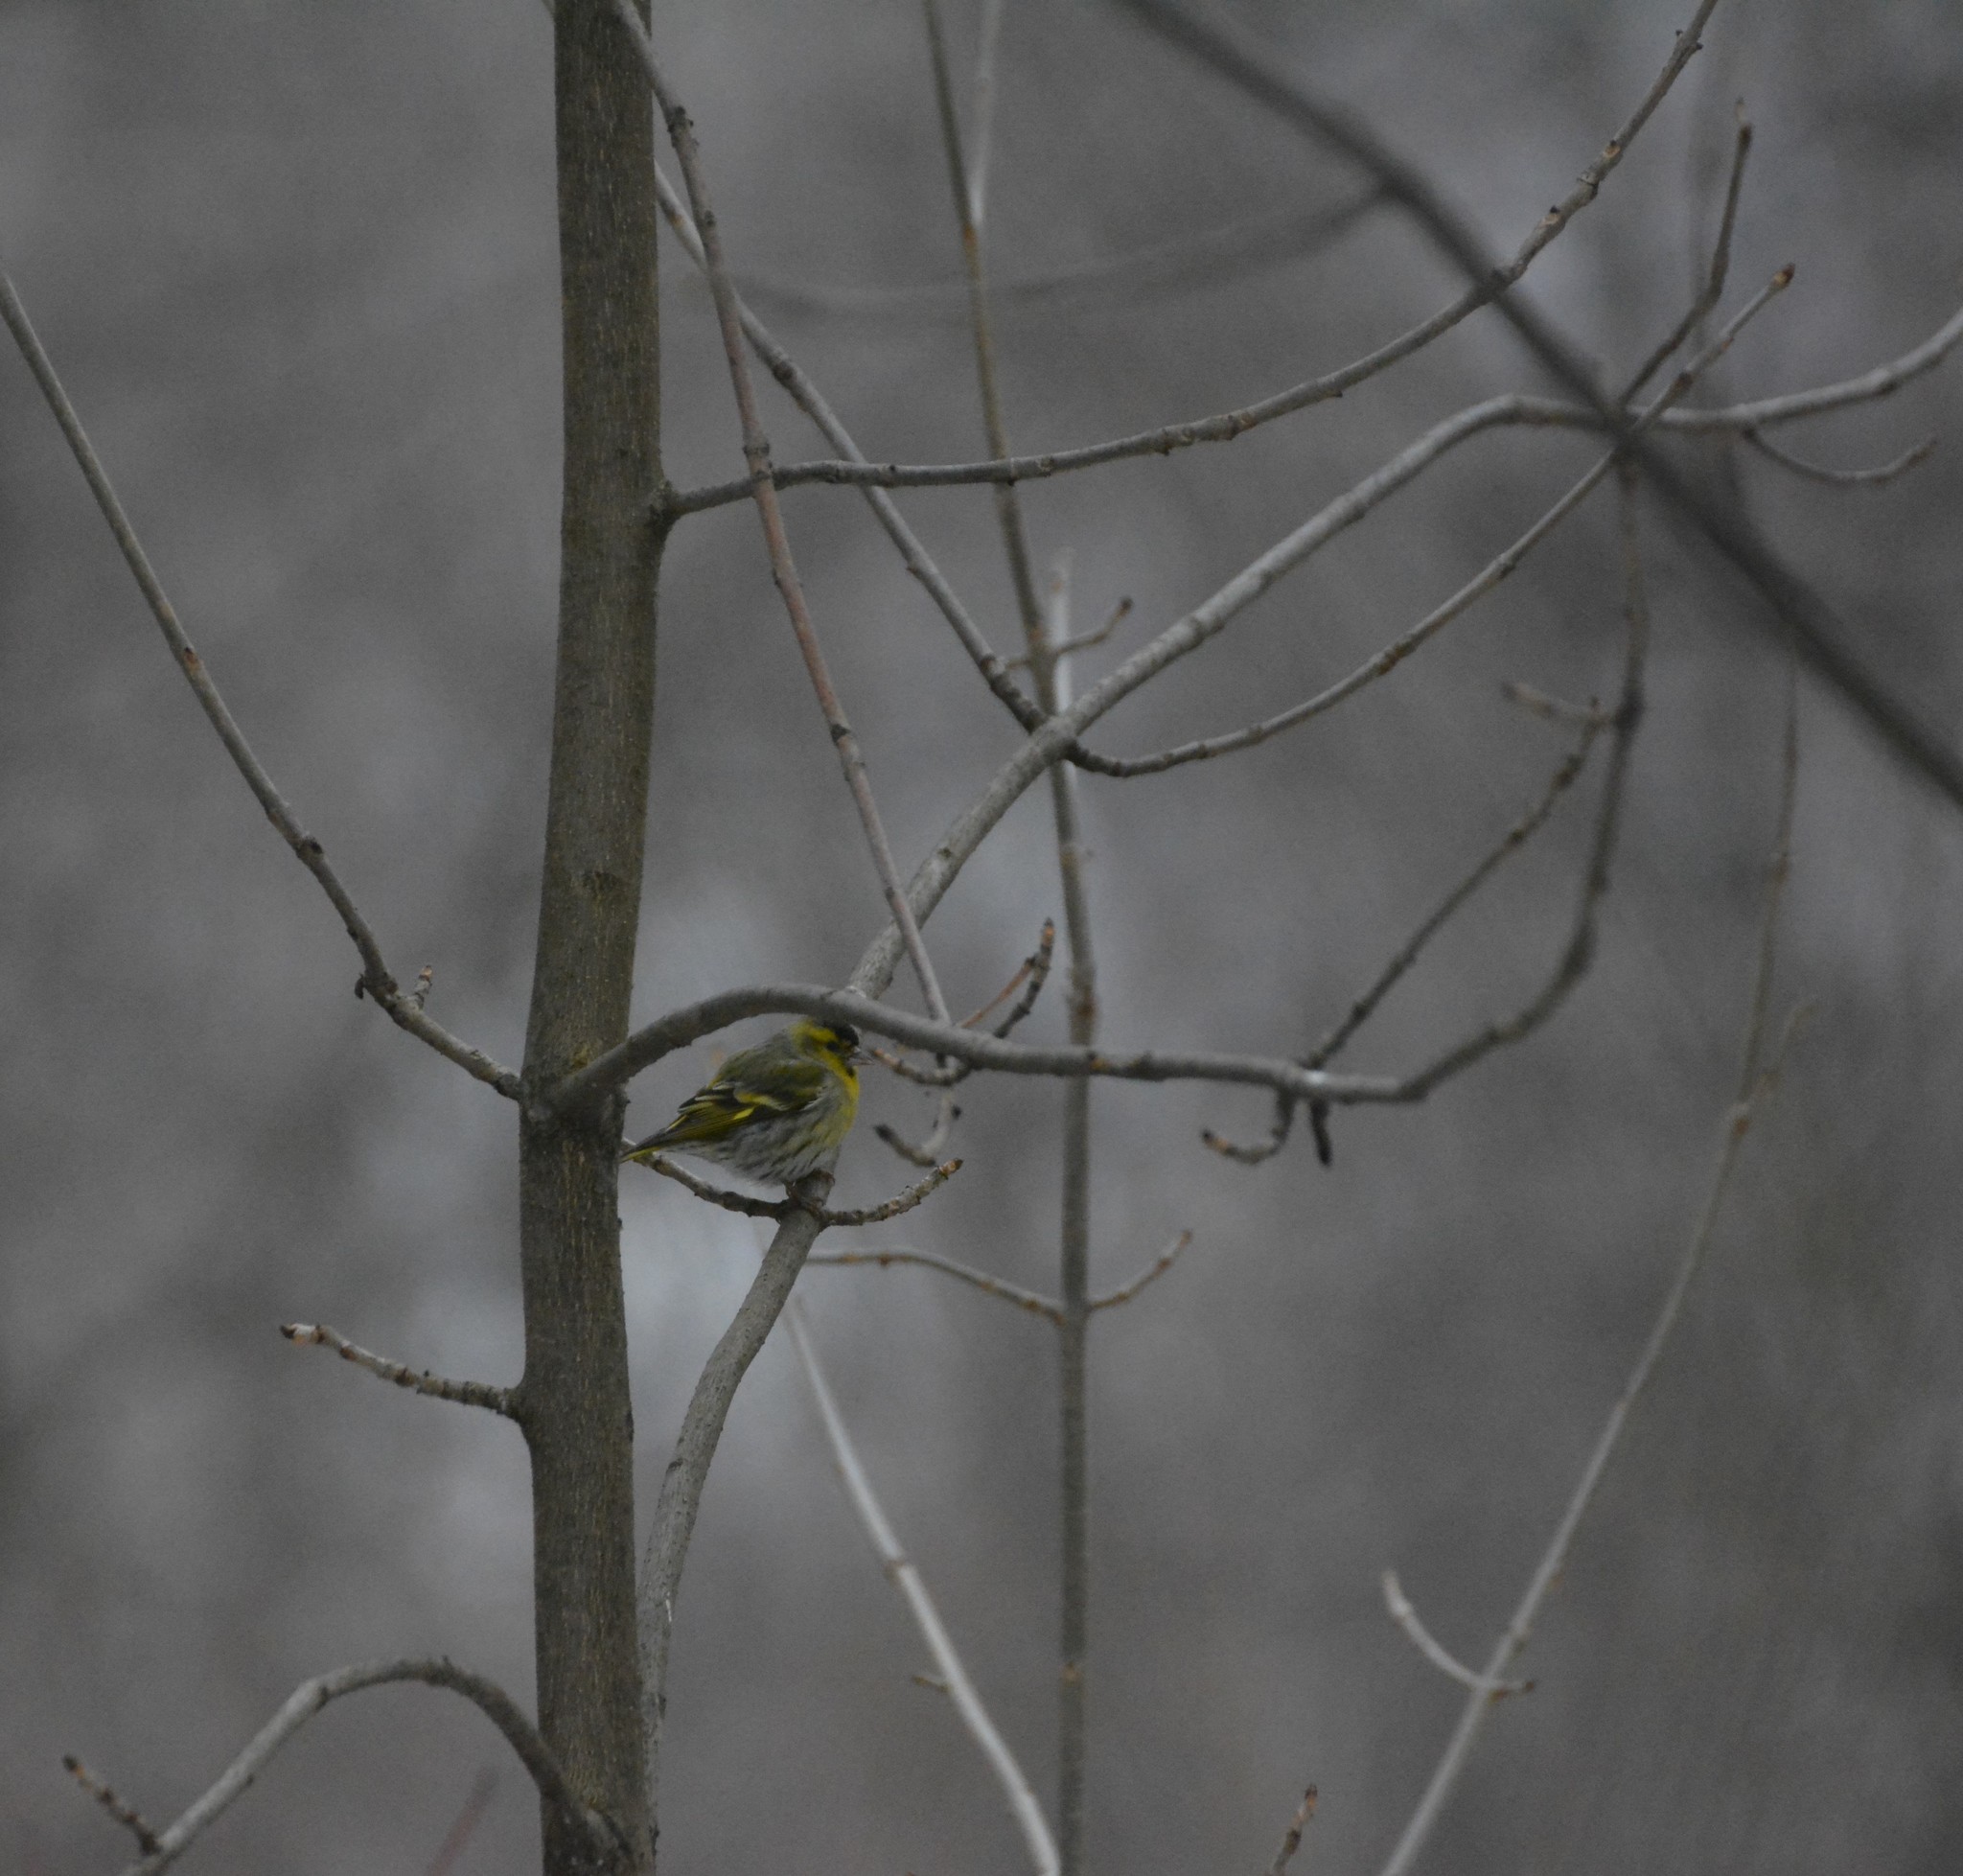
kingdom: Animalia
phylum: Chordata
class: Aves
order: Passeriformes
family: Fringillidae
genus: Spinus
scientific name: Spinus spinus
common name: Eurasian siskin
